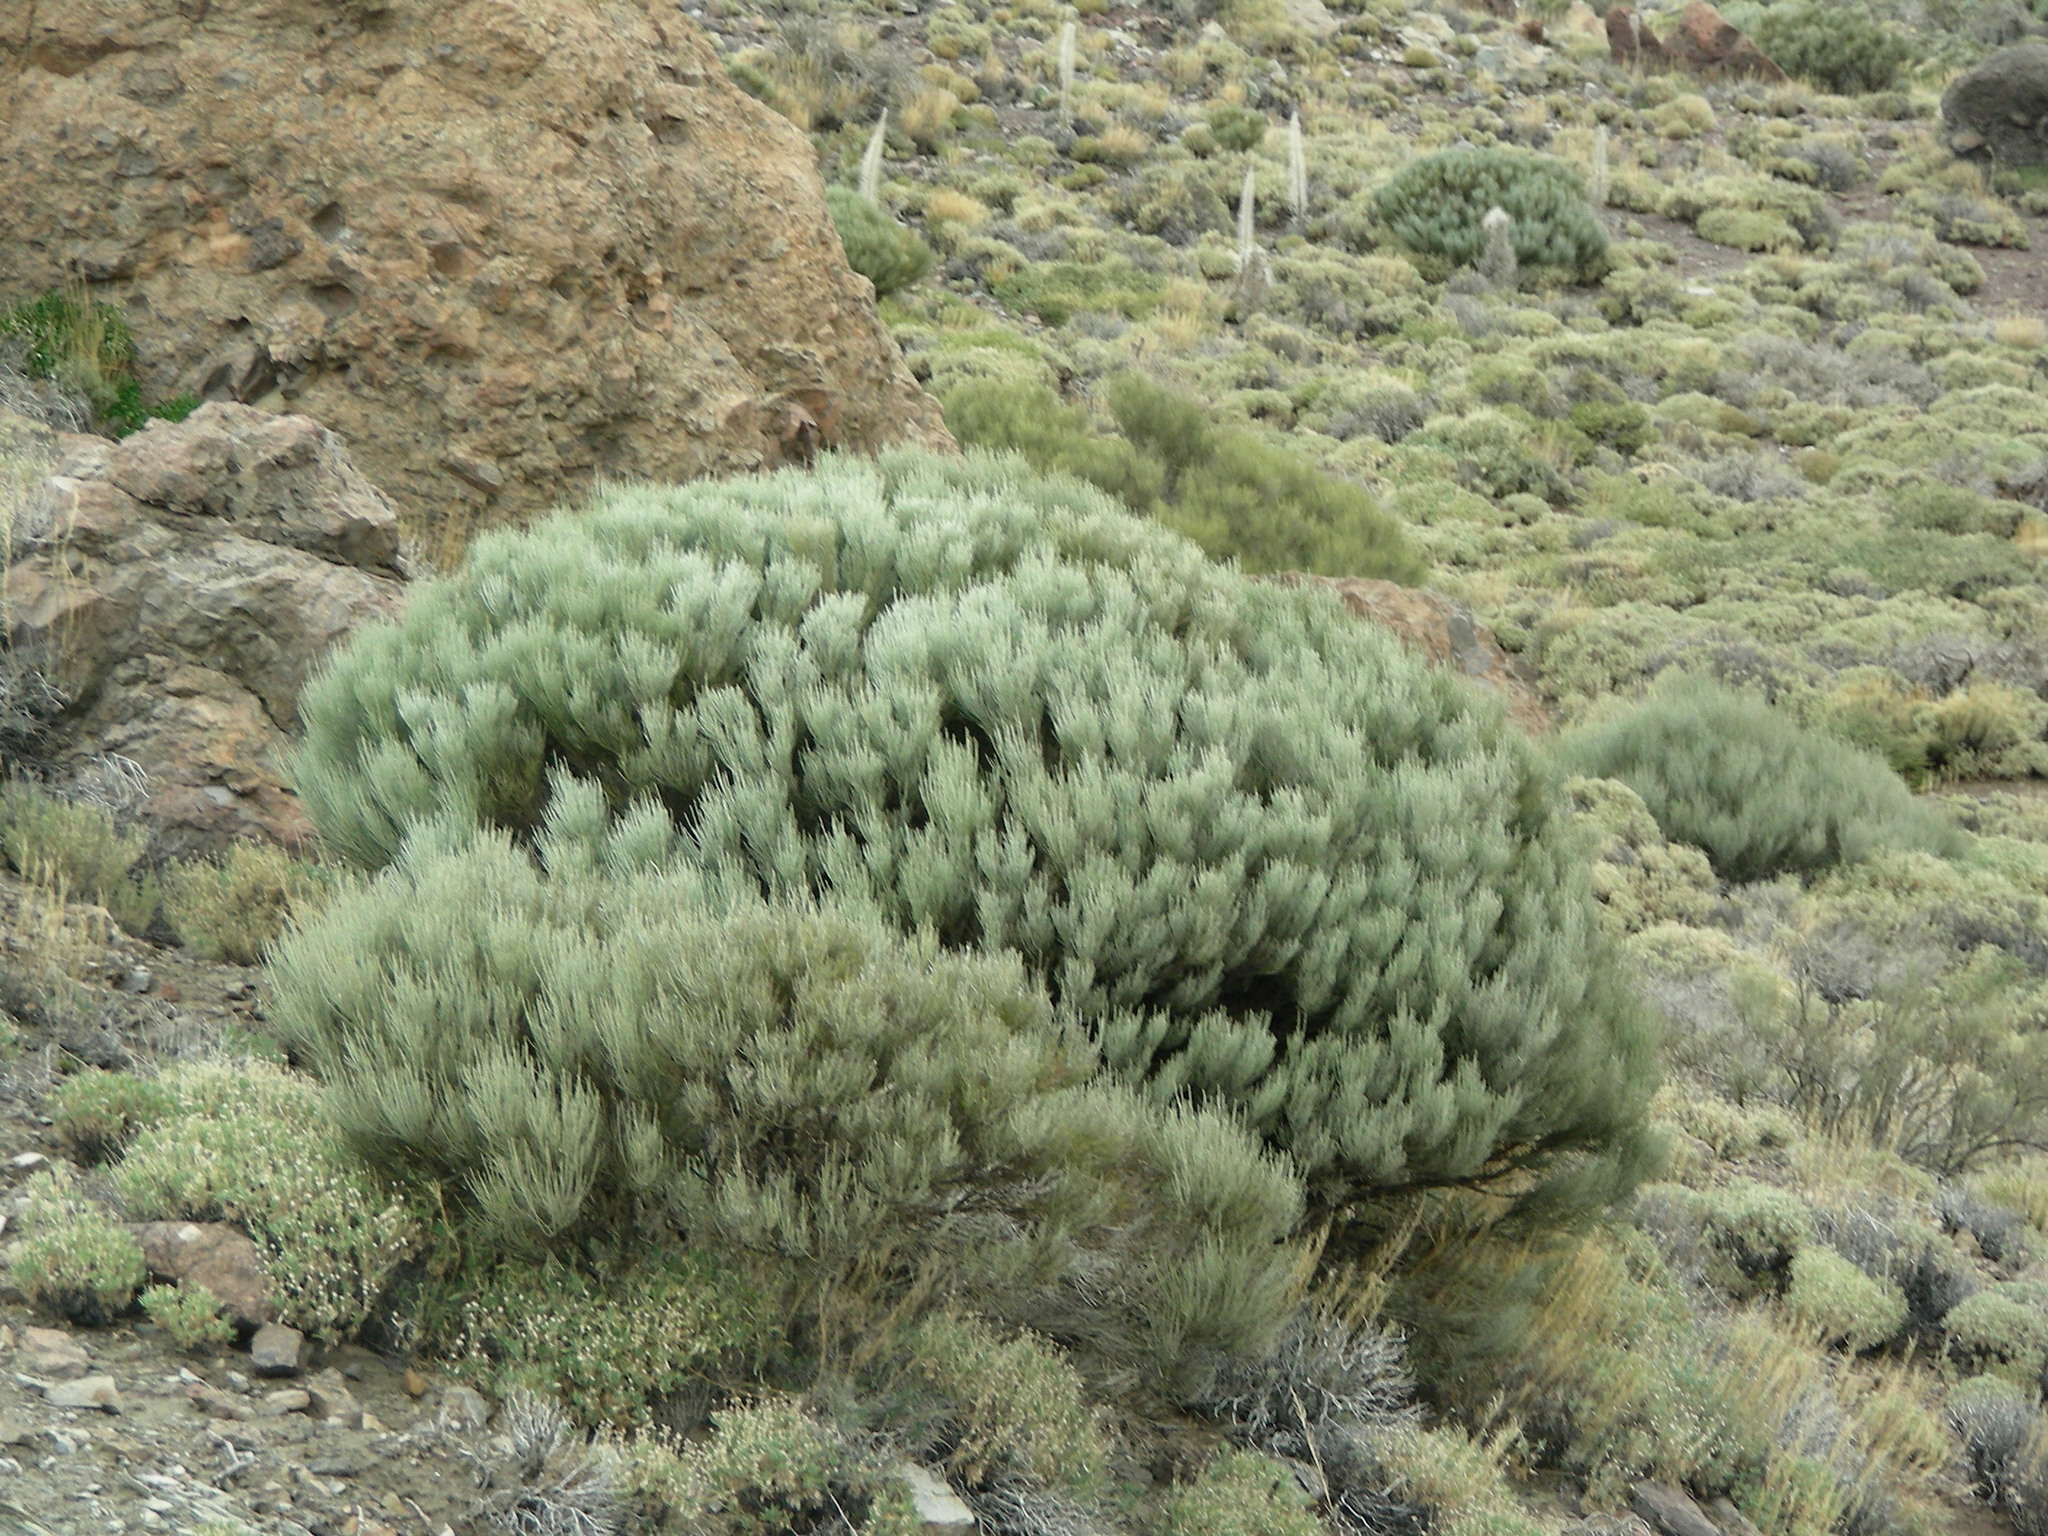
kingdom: Plantae
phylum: Tracheophyta
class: Magnoliopsida
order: Fabales
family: Fabaceae
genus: Cytisus
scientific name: Cytisus supranubius
